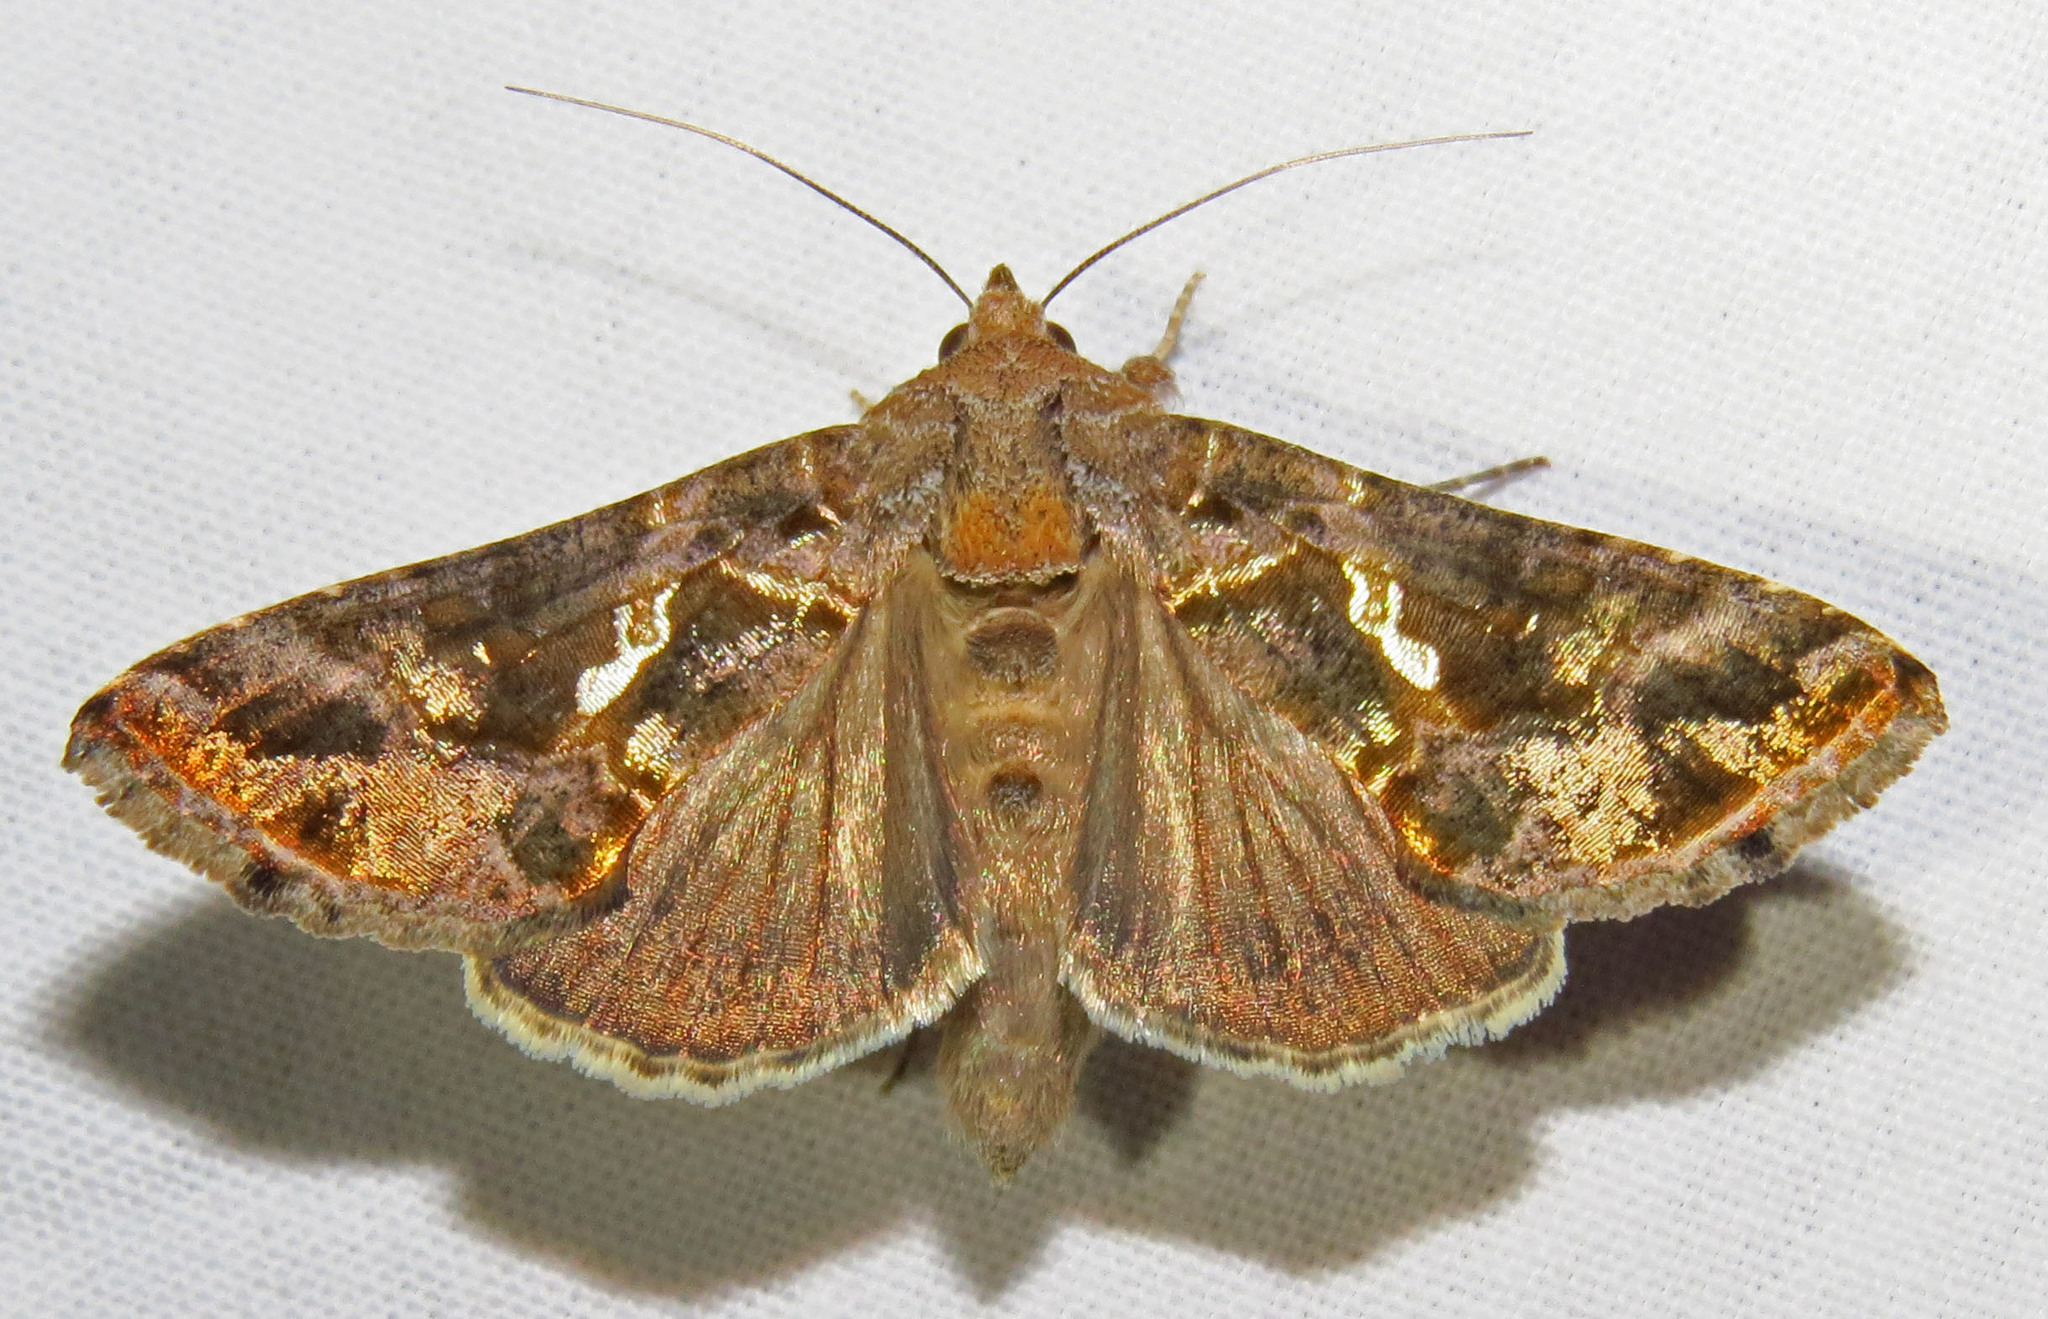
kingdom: Animalia
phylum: Arthropoda
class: Insecta
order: Lepidoptera
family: Noctuidae
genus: Chrysodeixis
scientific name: Chrysodeixis includens
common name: Cutworm moth
